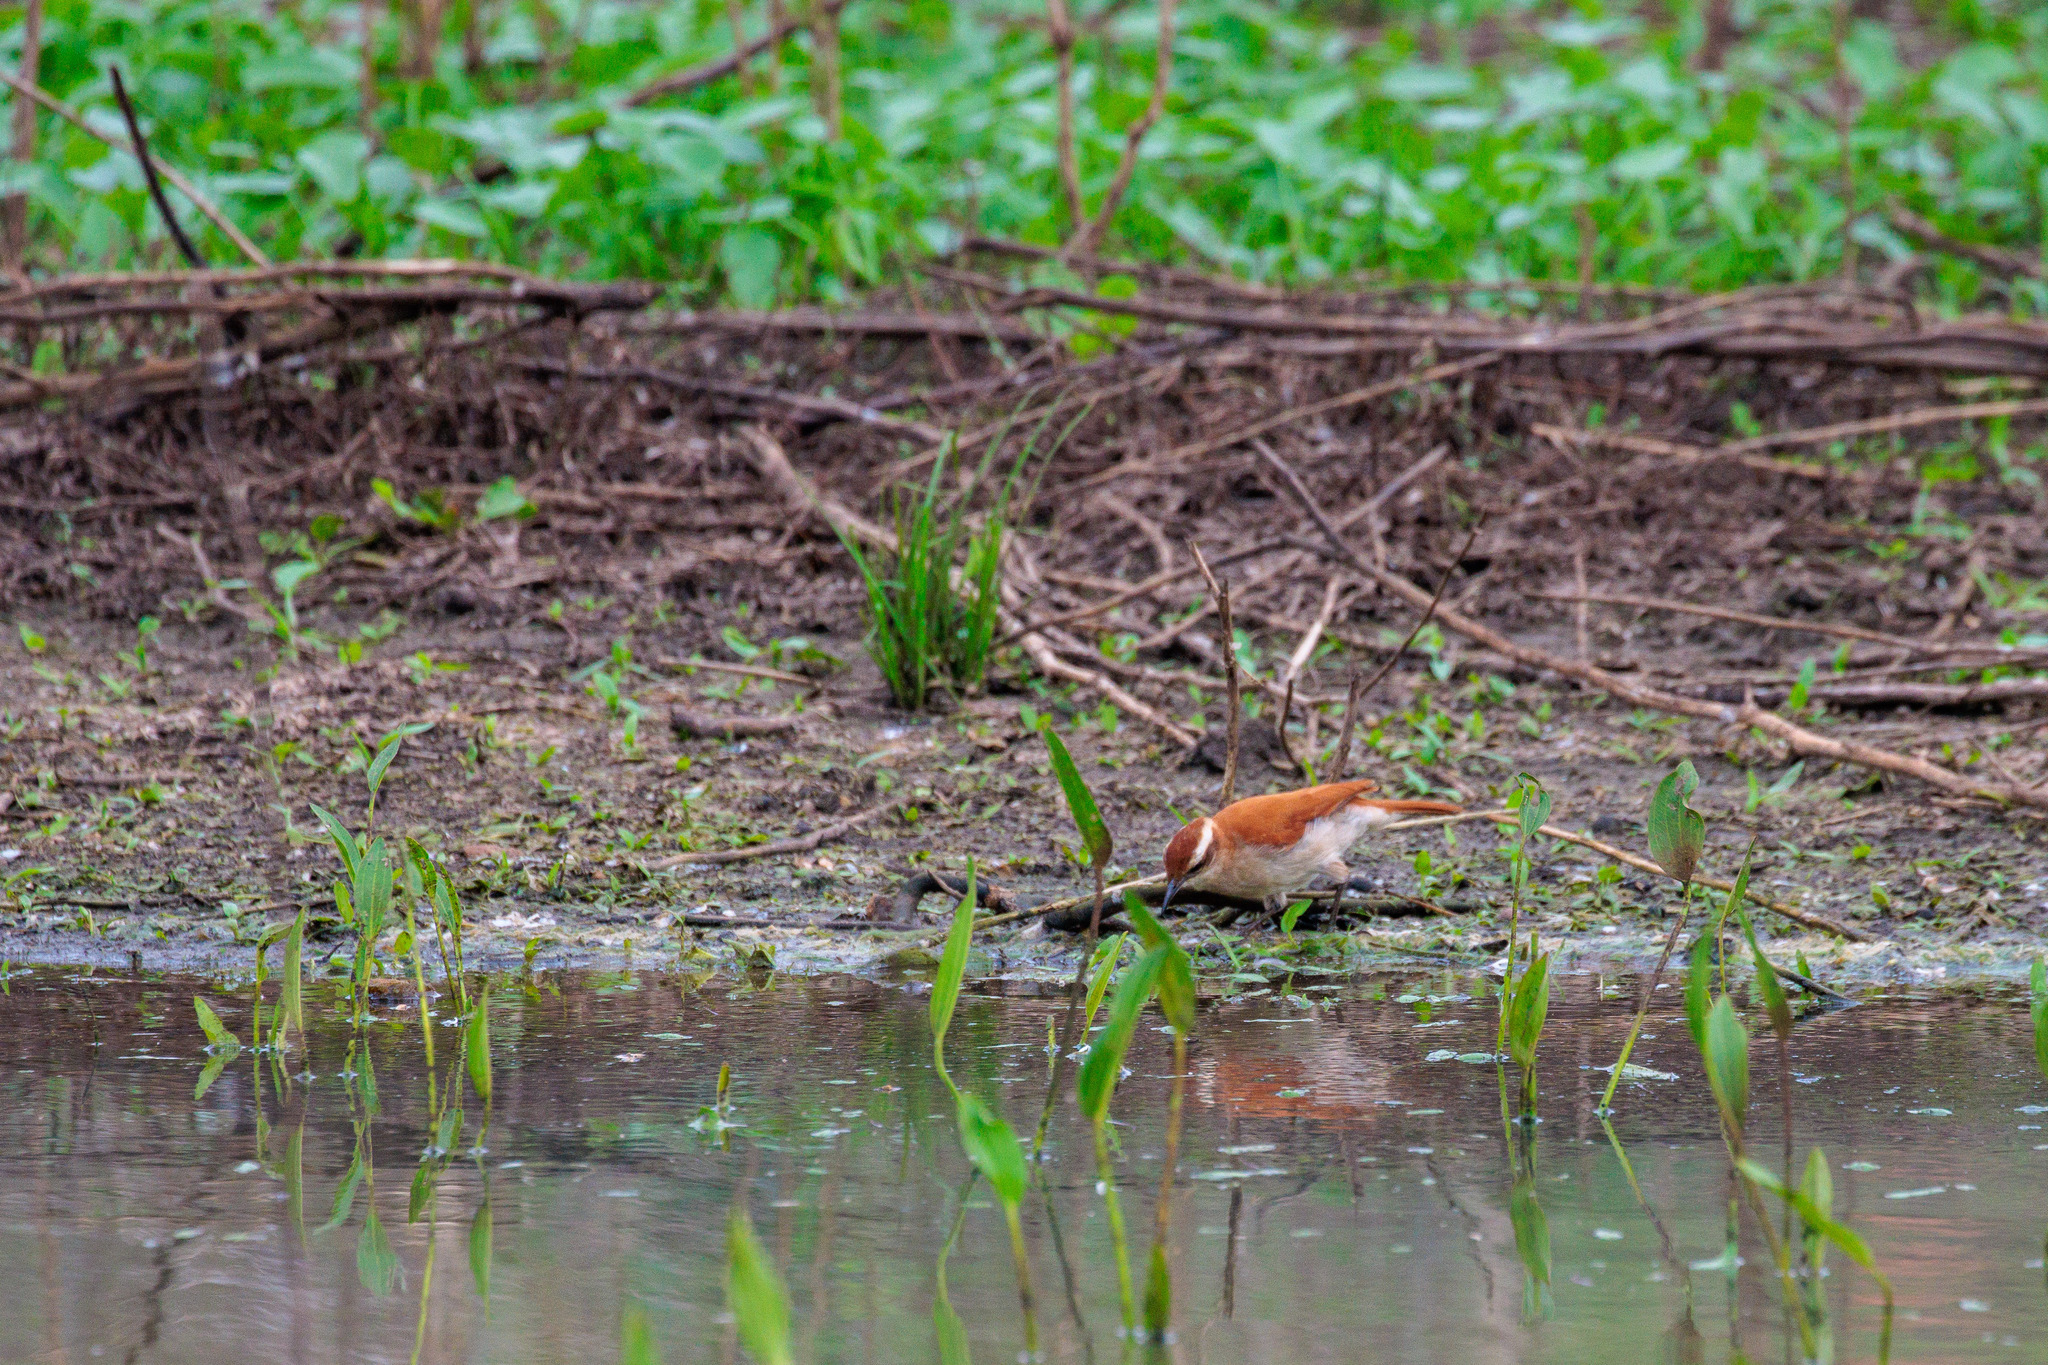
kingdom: Animalia
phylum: Chordata
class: Aves
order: Passeriformes
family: Furnariidae
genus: Furnarius
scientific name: Furnarius figulus
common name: Band-tailed hornero
